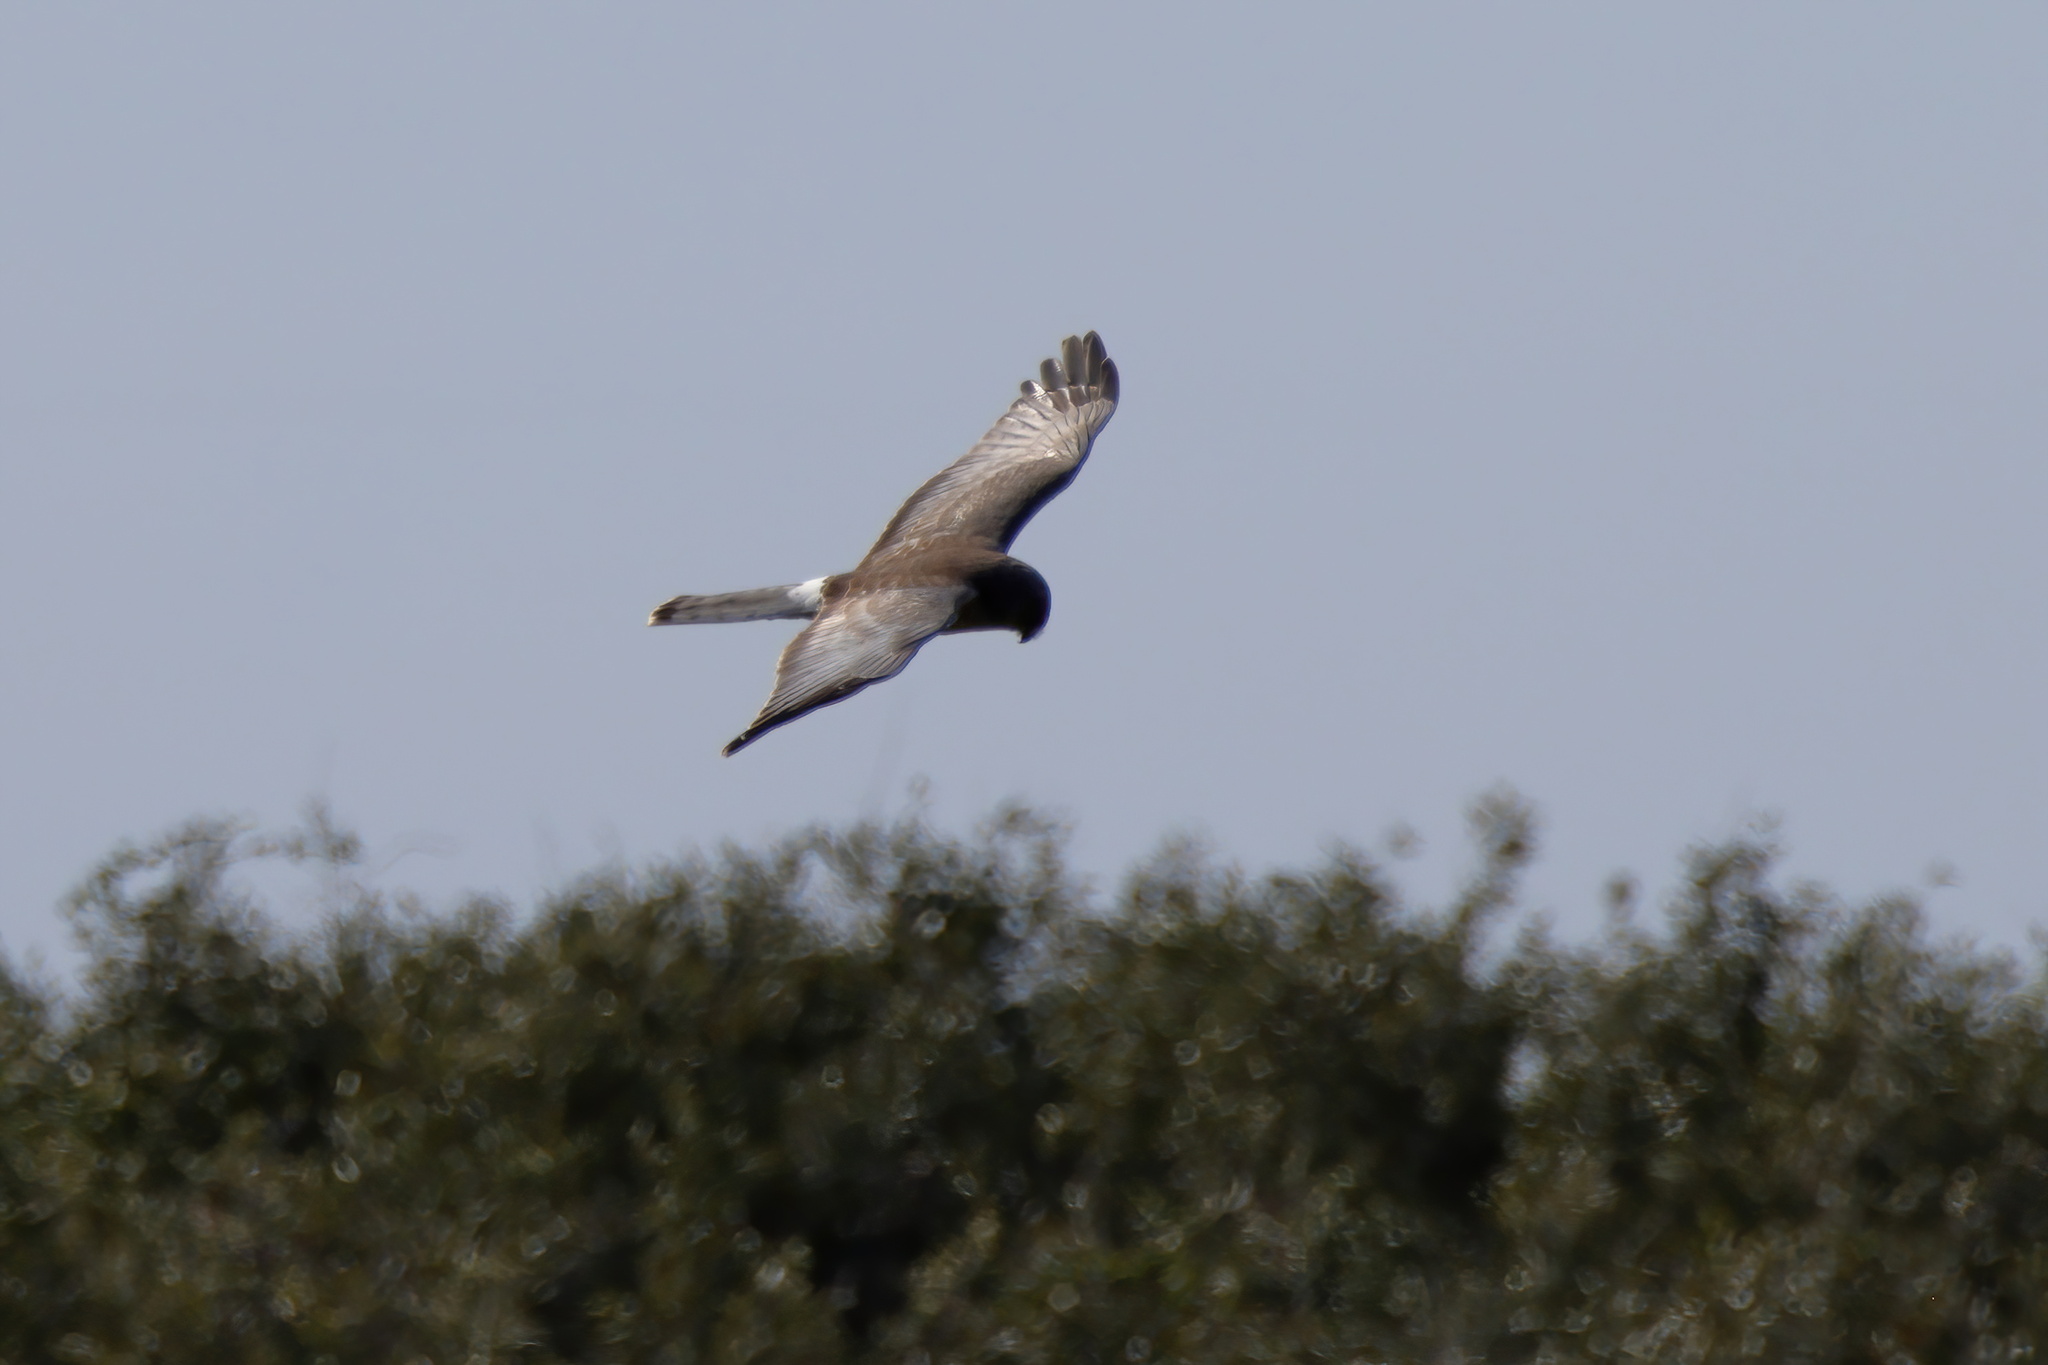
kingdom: Animalia
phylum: Chordata
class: Aves
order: Accipitriformes
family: Accipitridae
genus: Circus
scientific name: Circus cyaneus
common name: Hen harrier
